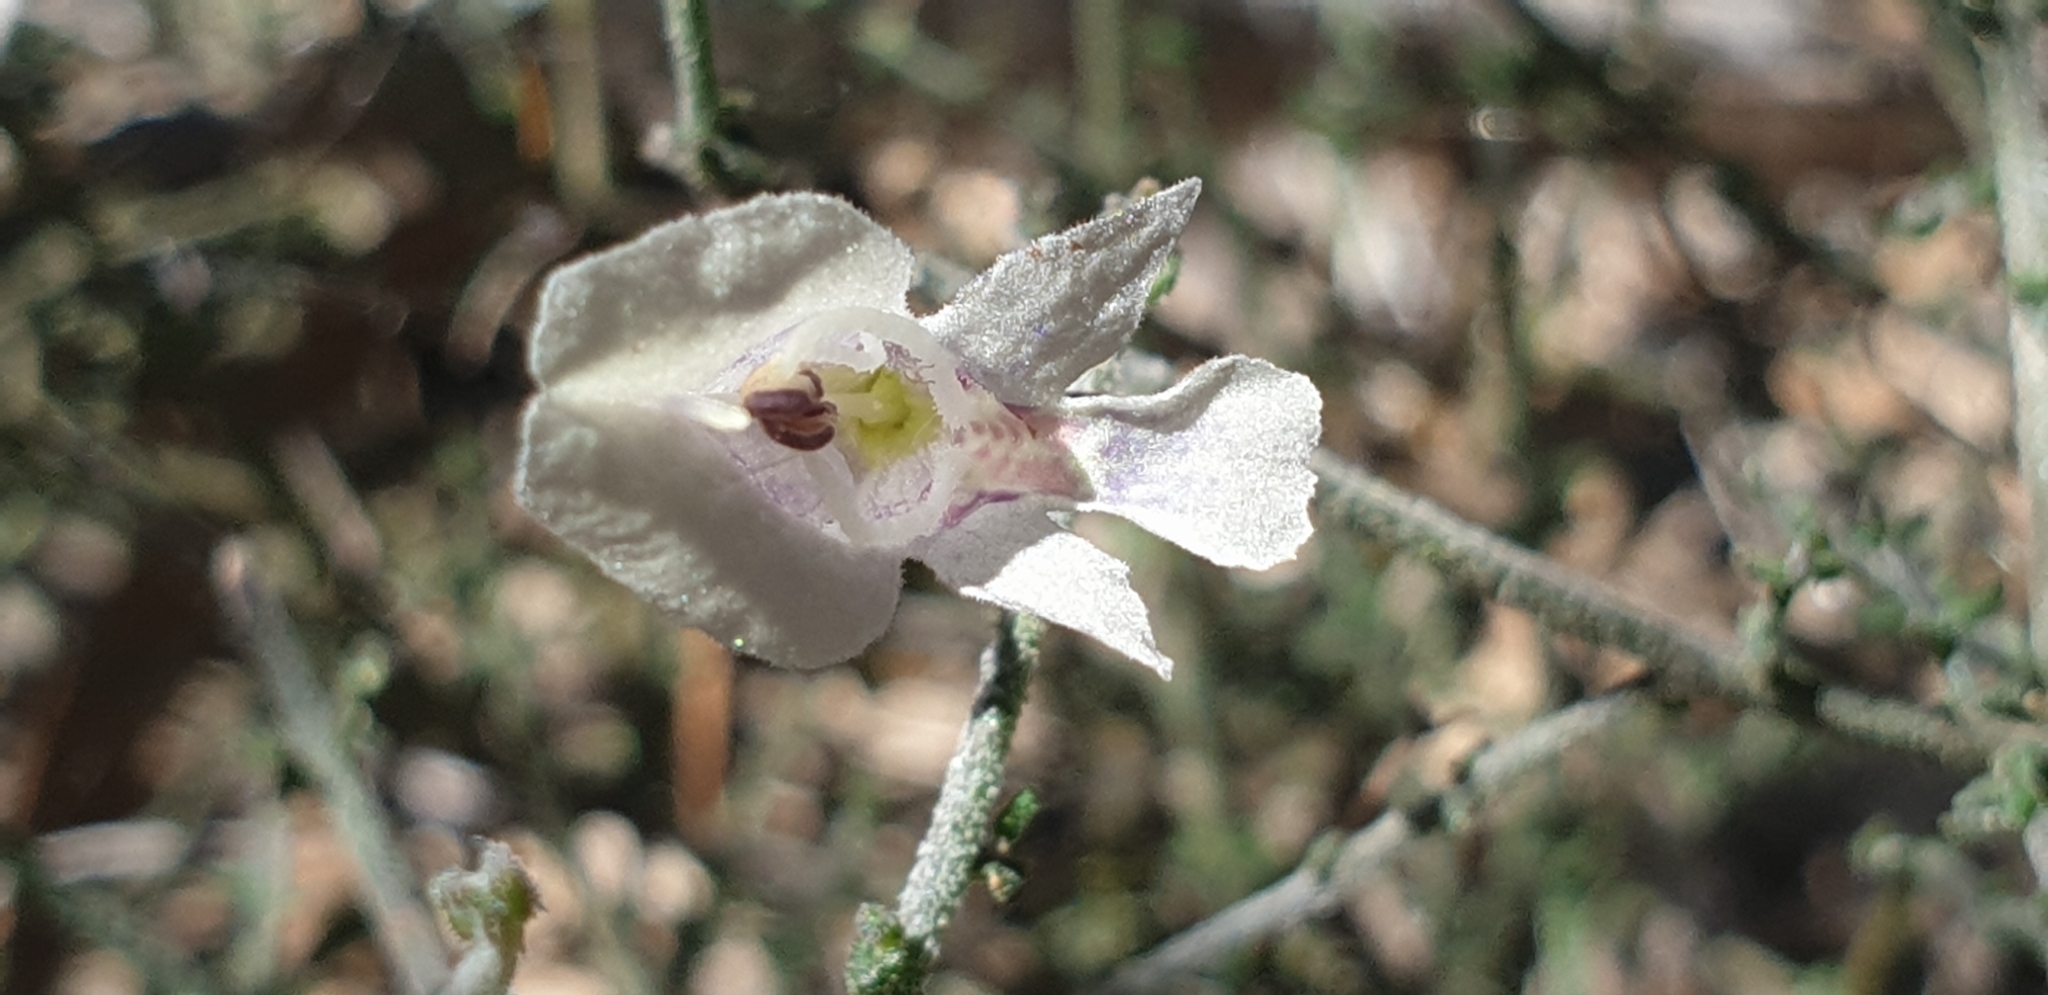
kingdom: Plantae
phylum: Tracheophyta
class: Magnoliopsida
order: Lamiales
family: Lamiaceae
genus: Prostanthera
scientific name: Prostanthera chlorantha
